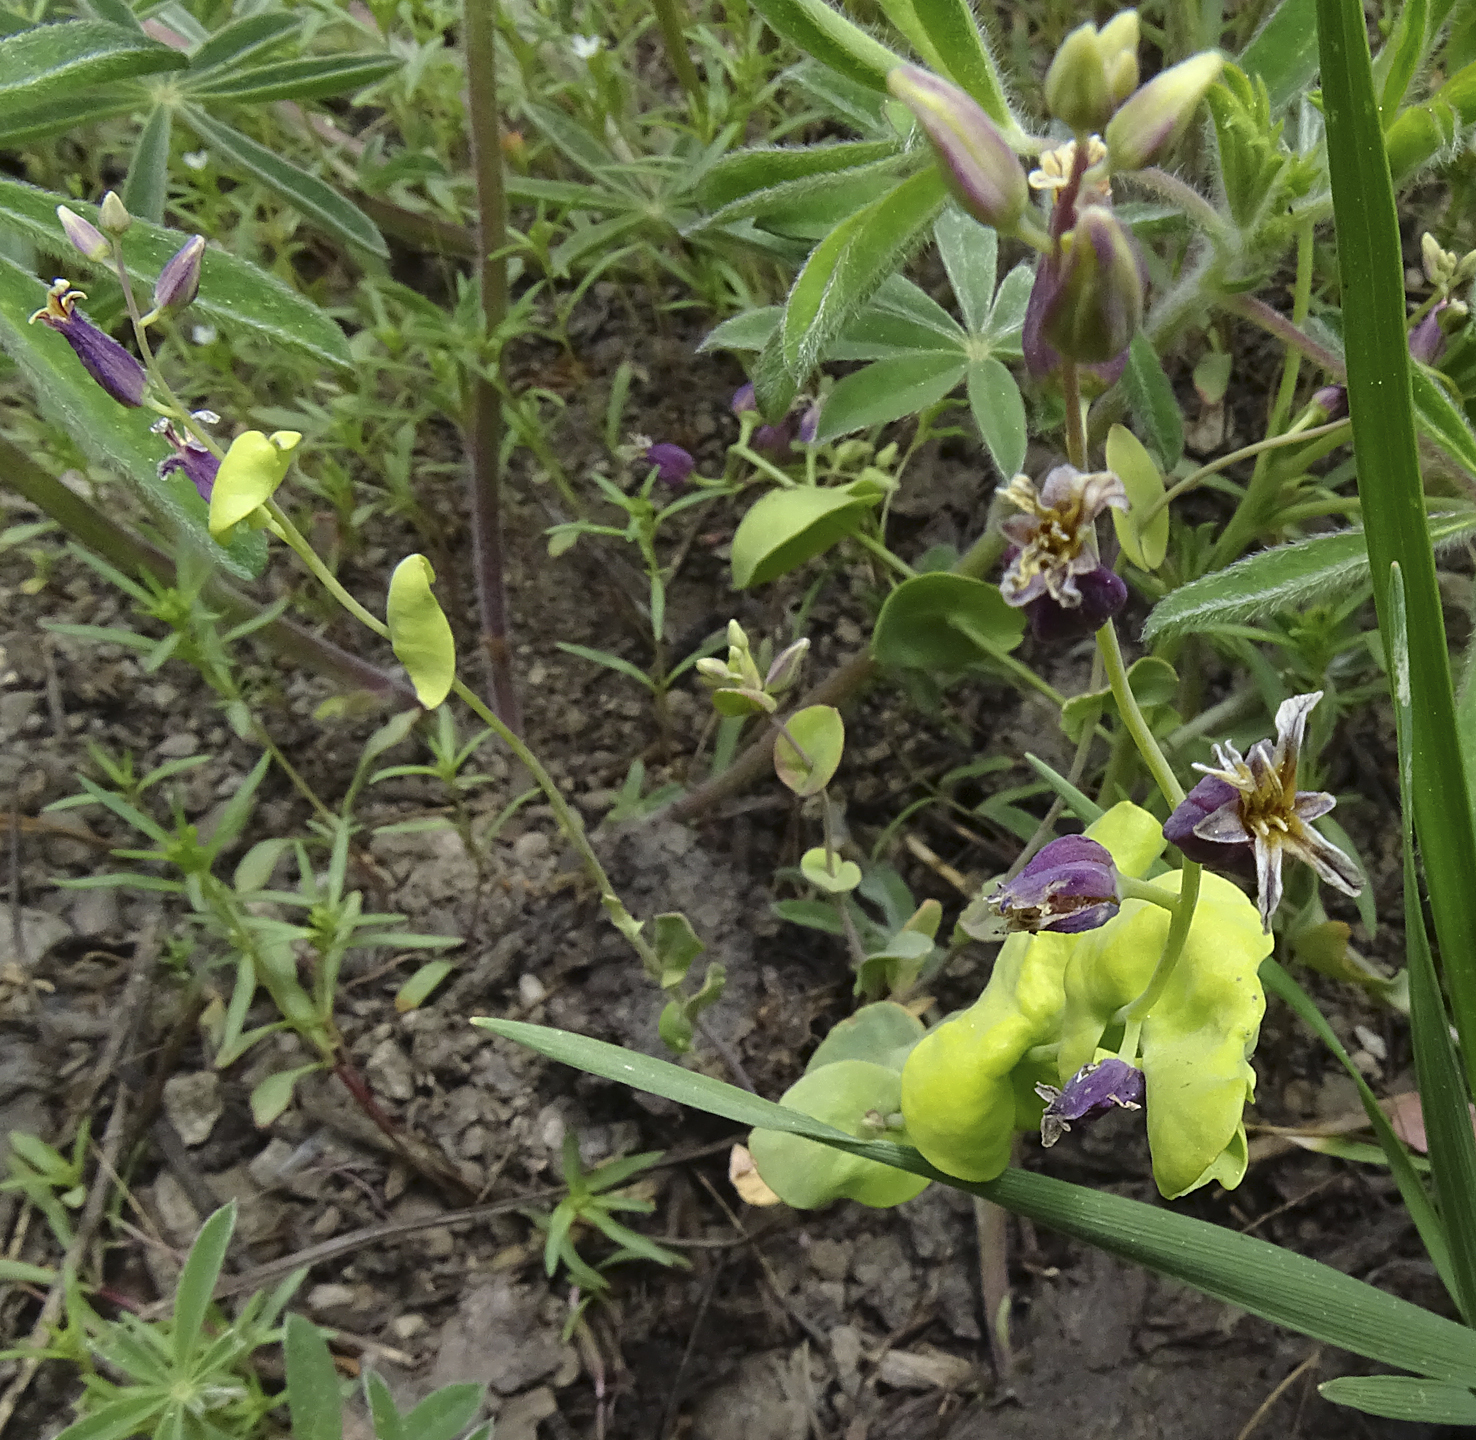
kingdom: Plantae
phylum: Tracheophyta
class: Magnoliopsida
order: Brassicales
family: Brassicaceae
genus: Streptanthus
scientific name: Streptanthus tortuosus
